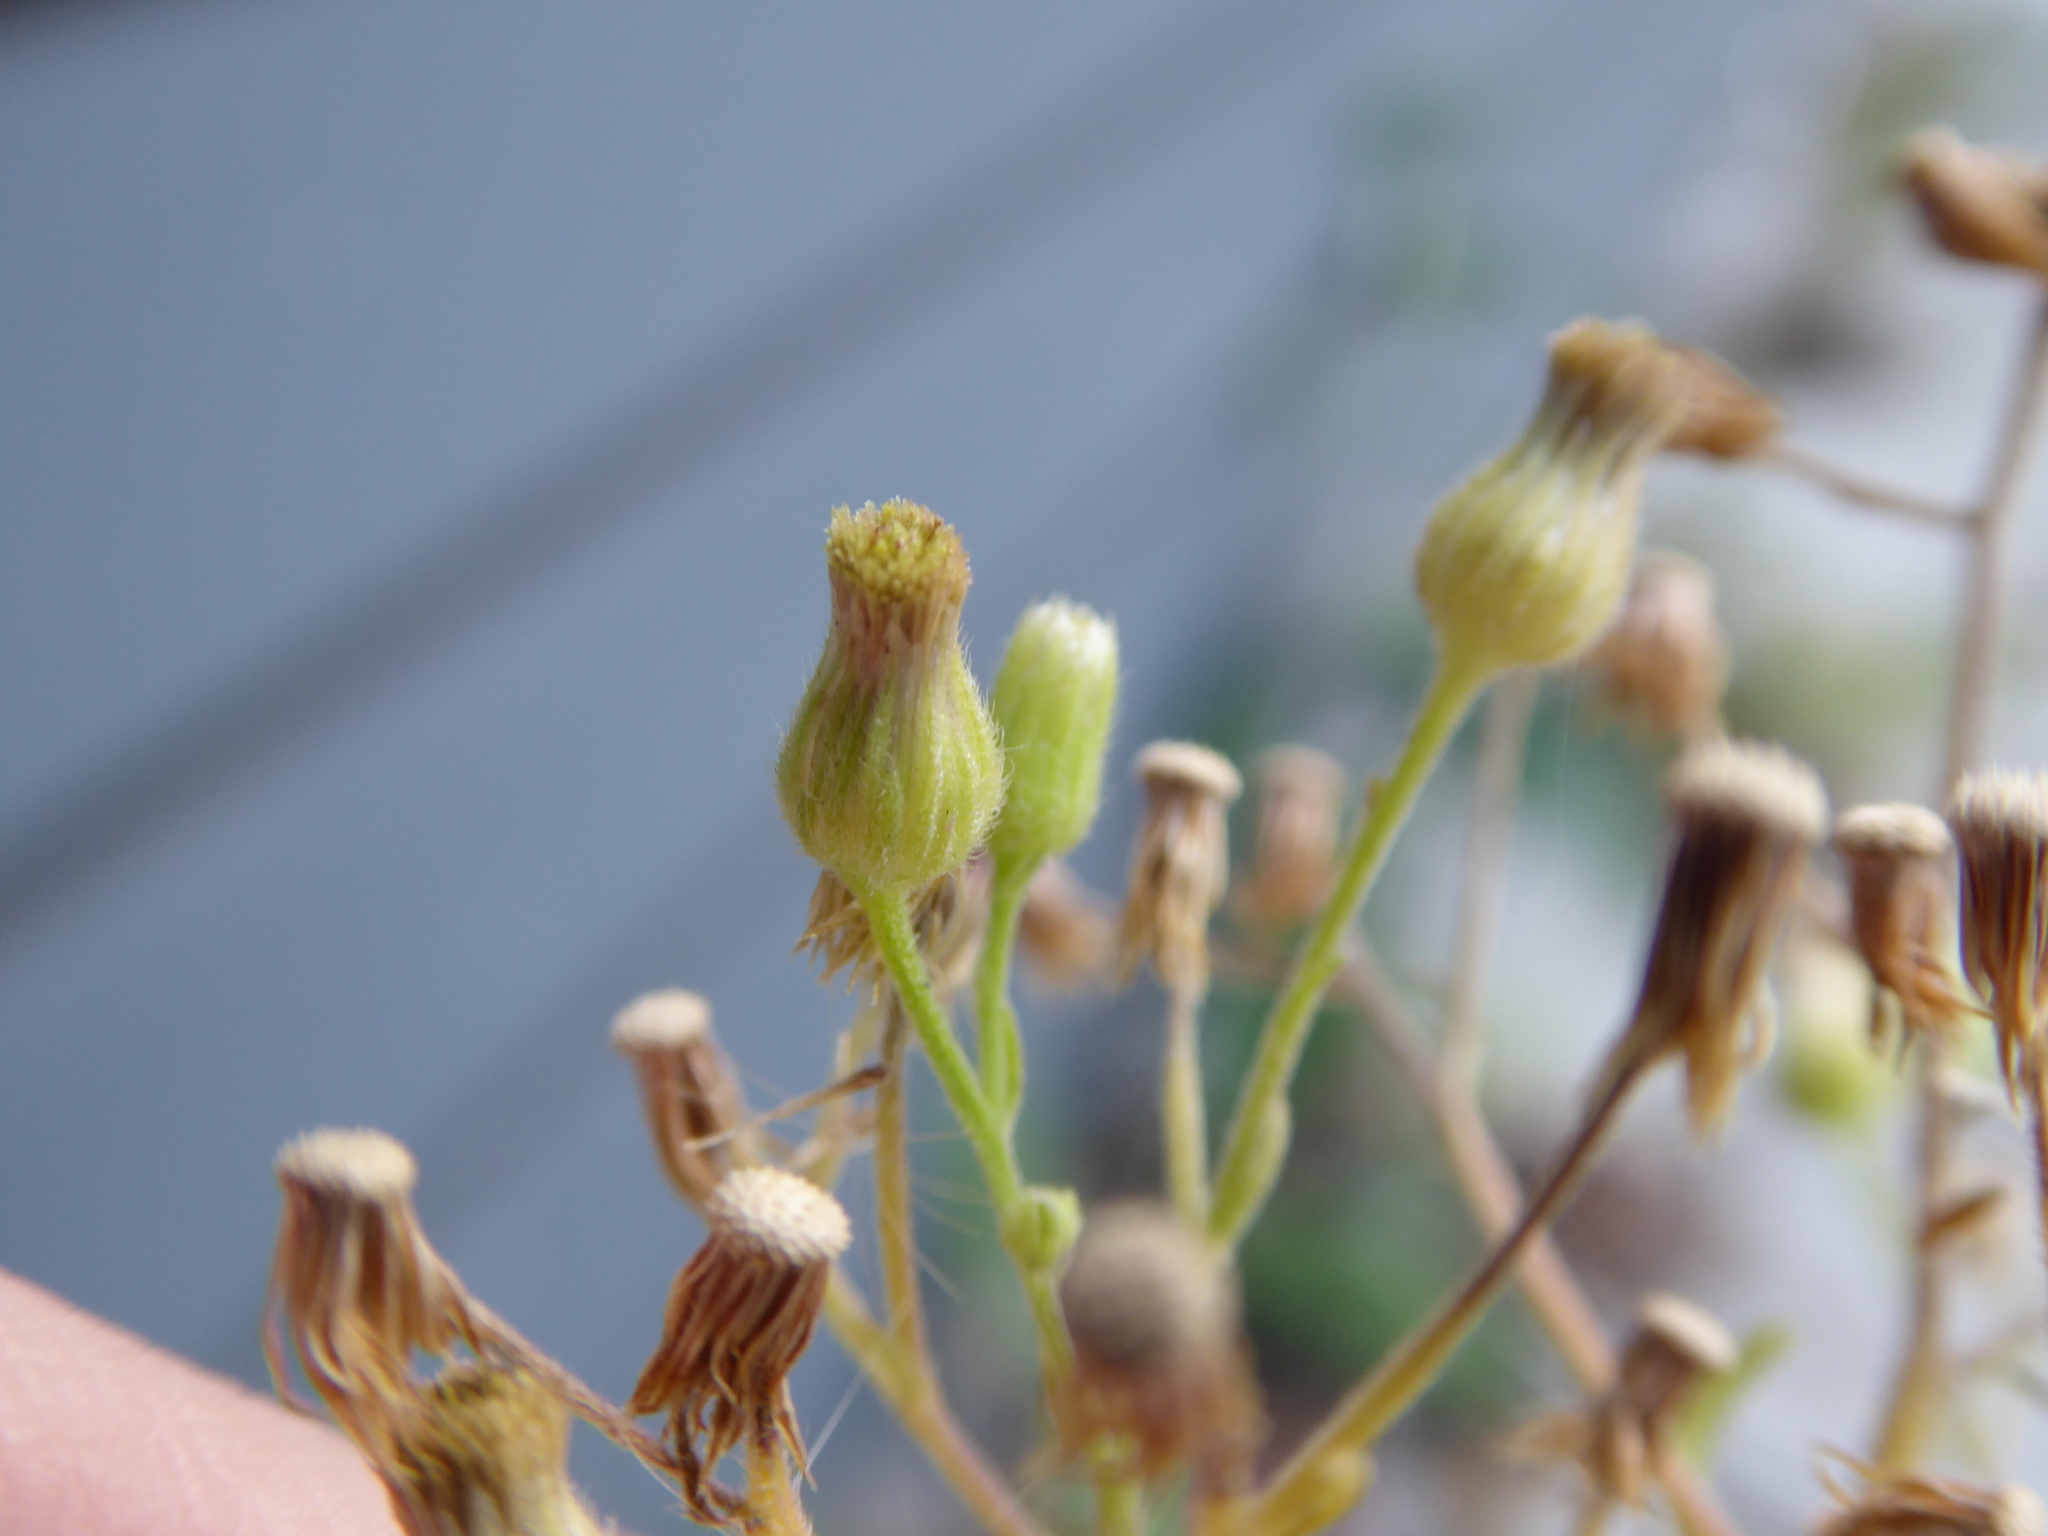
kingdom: Plantae
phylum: Tracheophyta
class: Magnoliopsida
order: Asterales
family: Asteraceae
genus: Erigeron
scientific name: Erigeron sumatrensis
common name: Daisy
